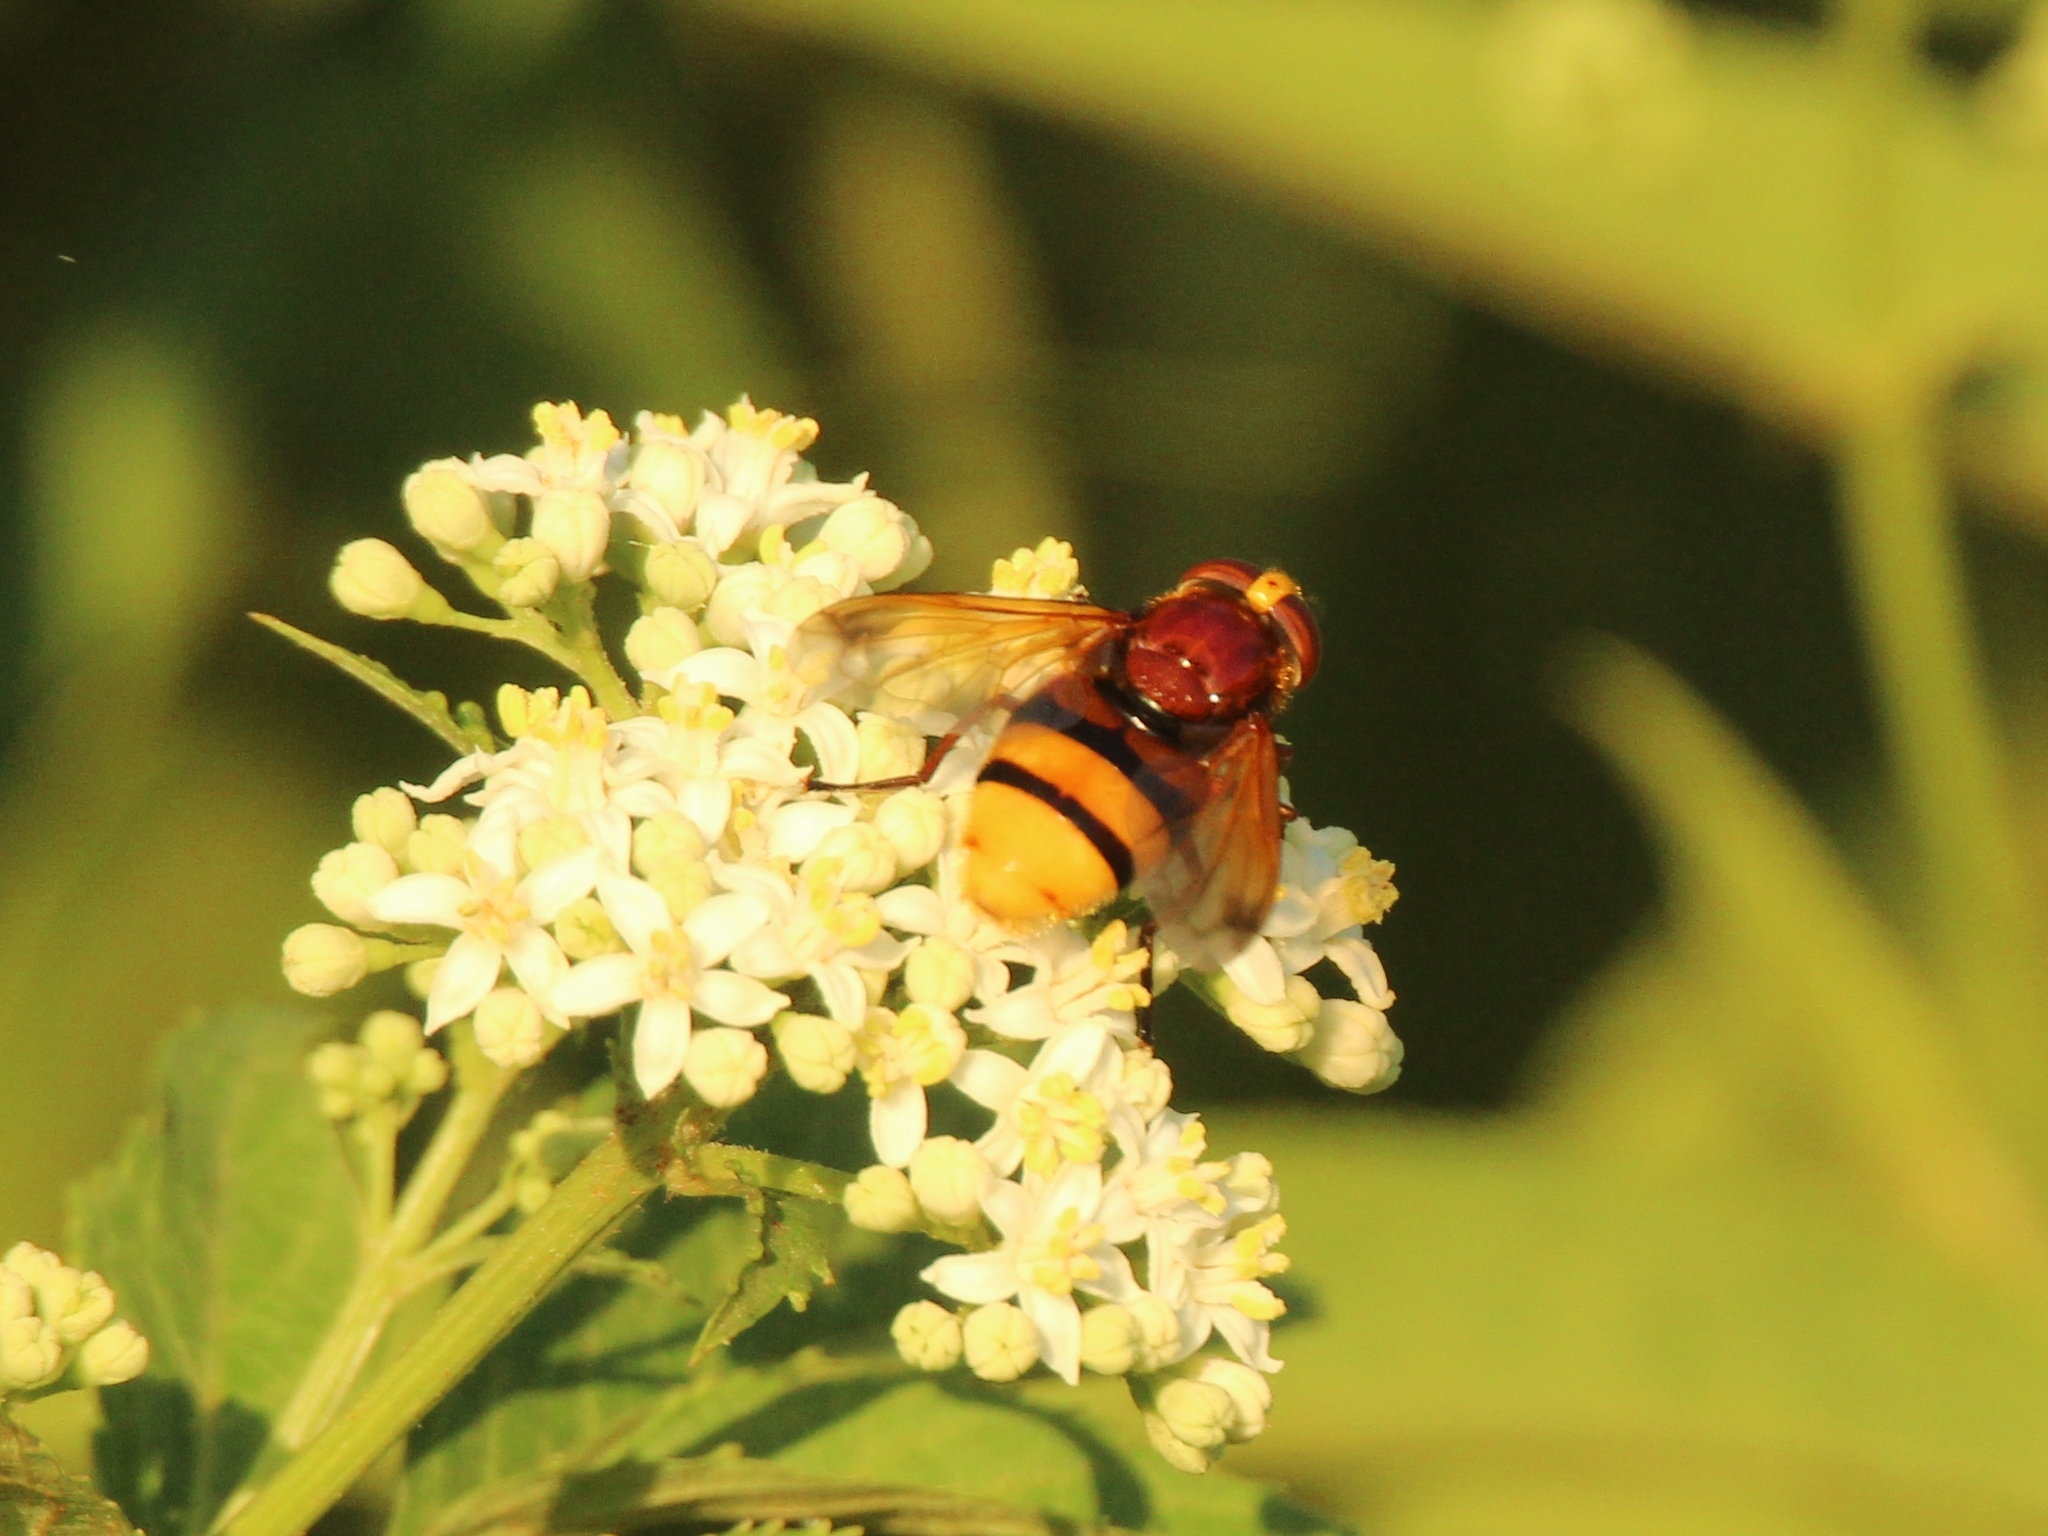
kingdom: Animalia
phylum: Arthropoda
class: Insecta
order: Diptera
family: Syrphidae
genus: Volucella
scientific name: Volucella zonaria
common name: Hornet hoverfly
